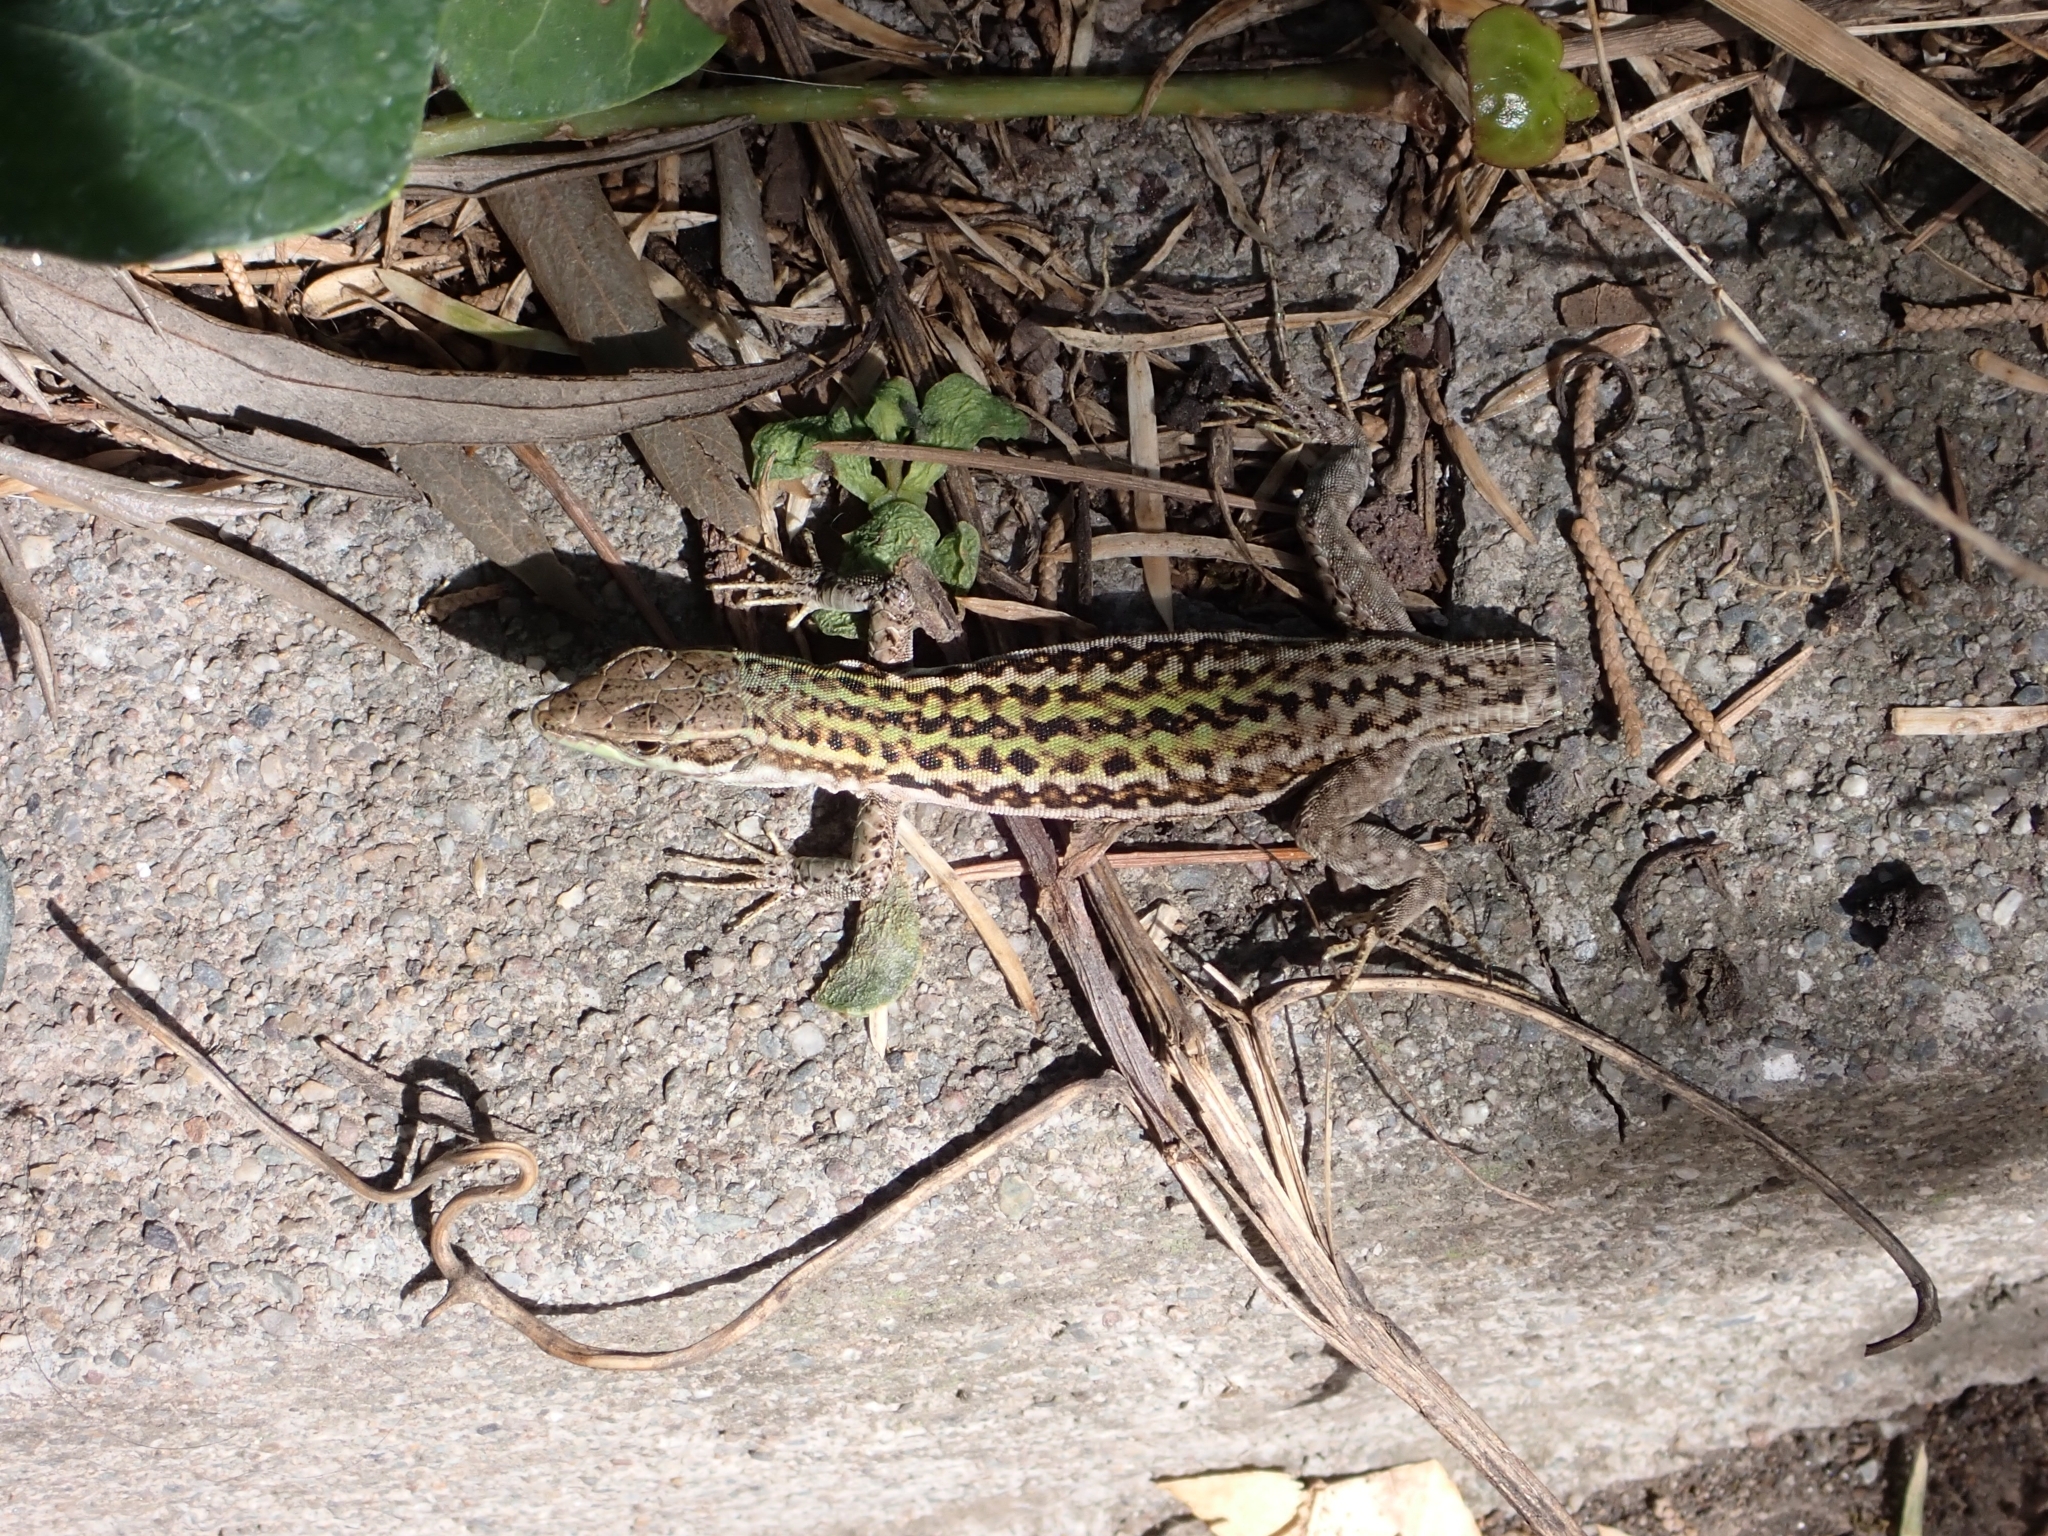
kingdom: Animalia
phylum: Chordata
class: Squamata
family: Lacertidae
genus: Podarcis
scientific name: Podarcis siculus
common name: Italian wall lizard
